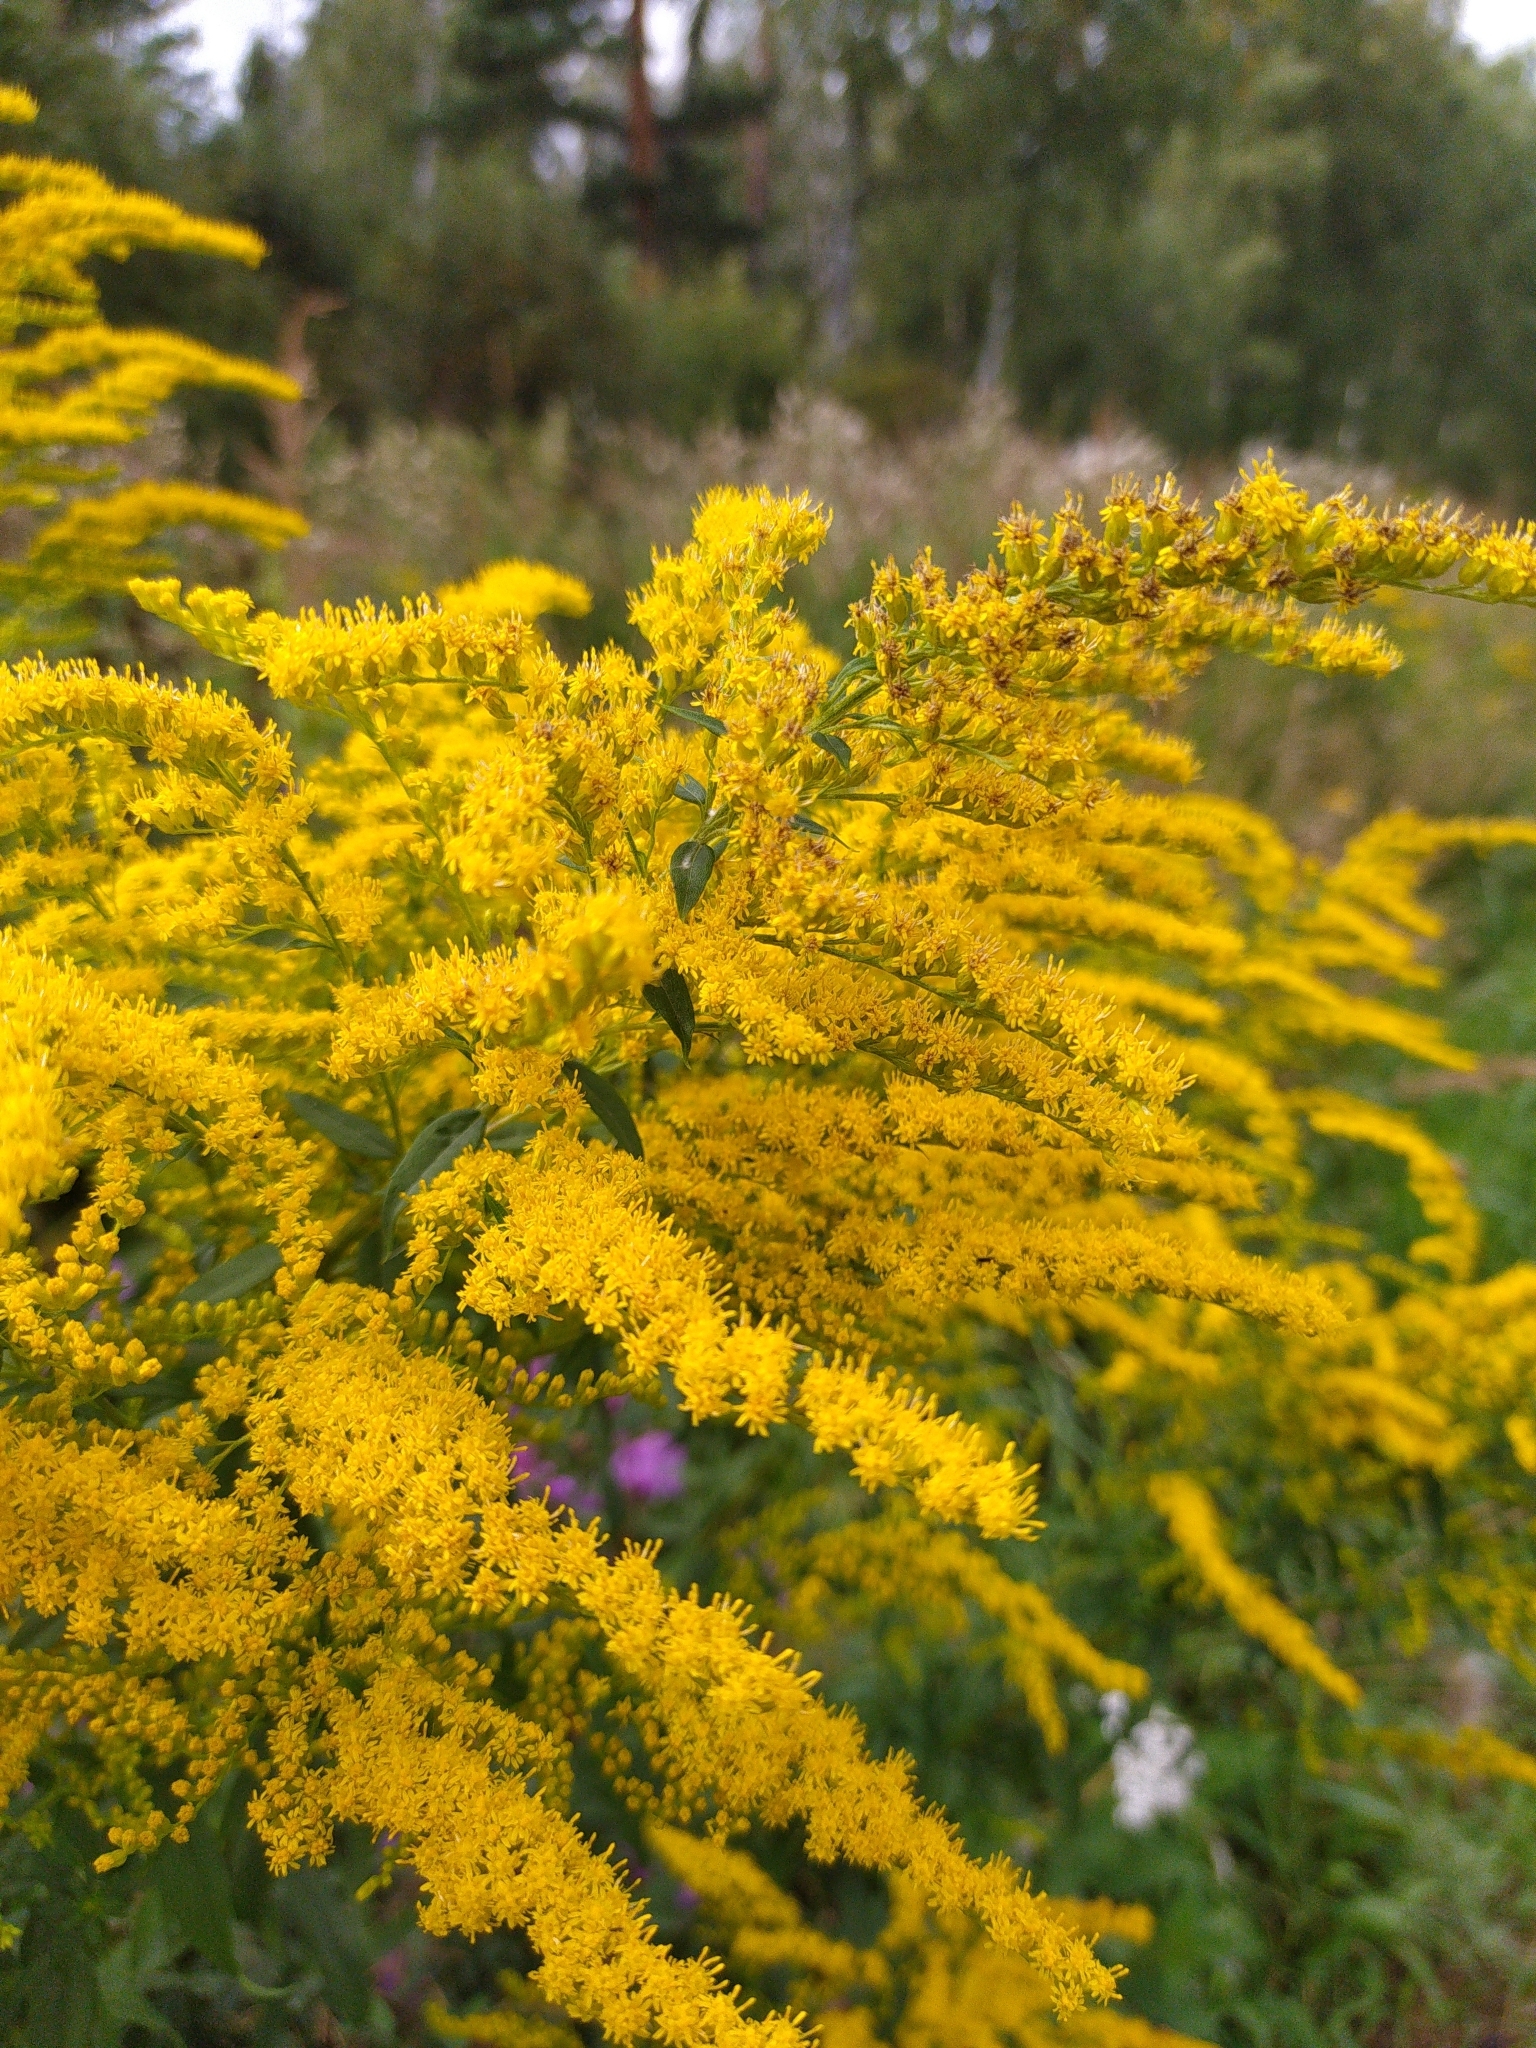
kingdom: Plantae
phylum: Tracheophyta
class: Magnoliopsida
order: Asterales
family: Asteraceae
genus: Solidago
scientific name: Solidago canadensis
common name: Canada goldenrod
